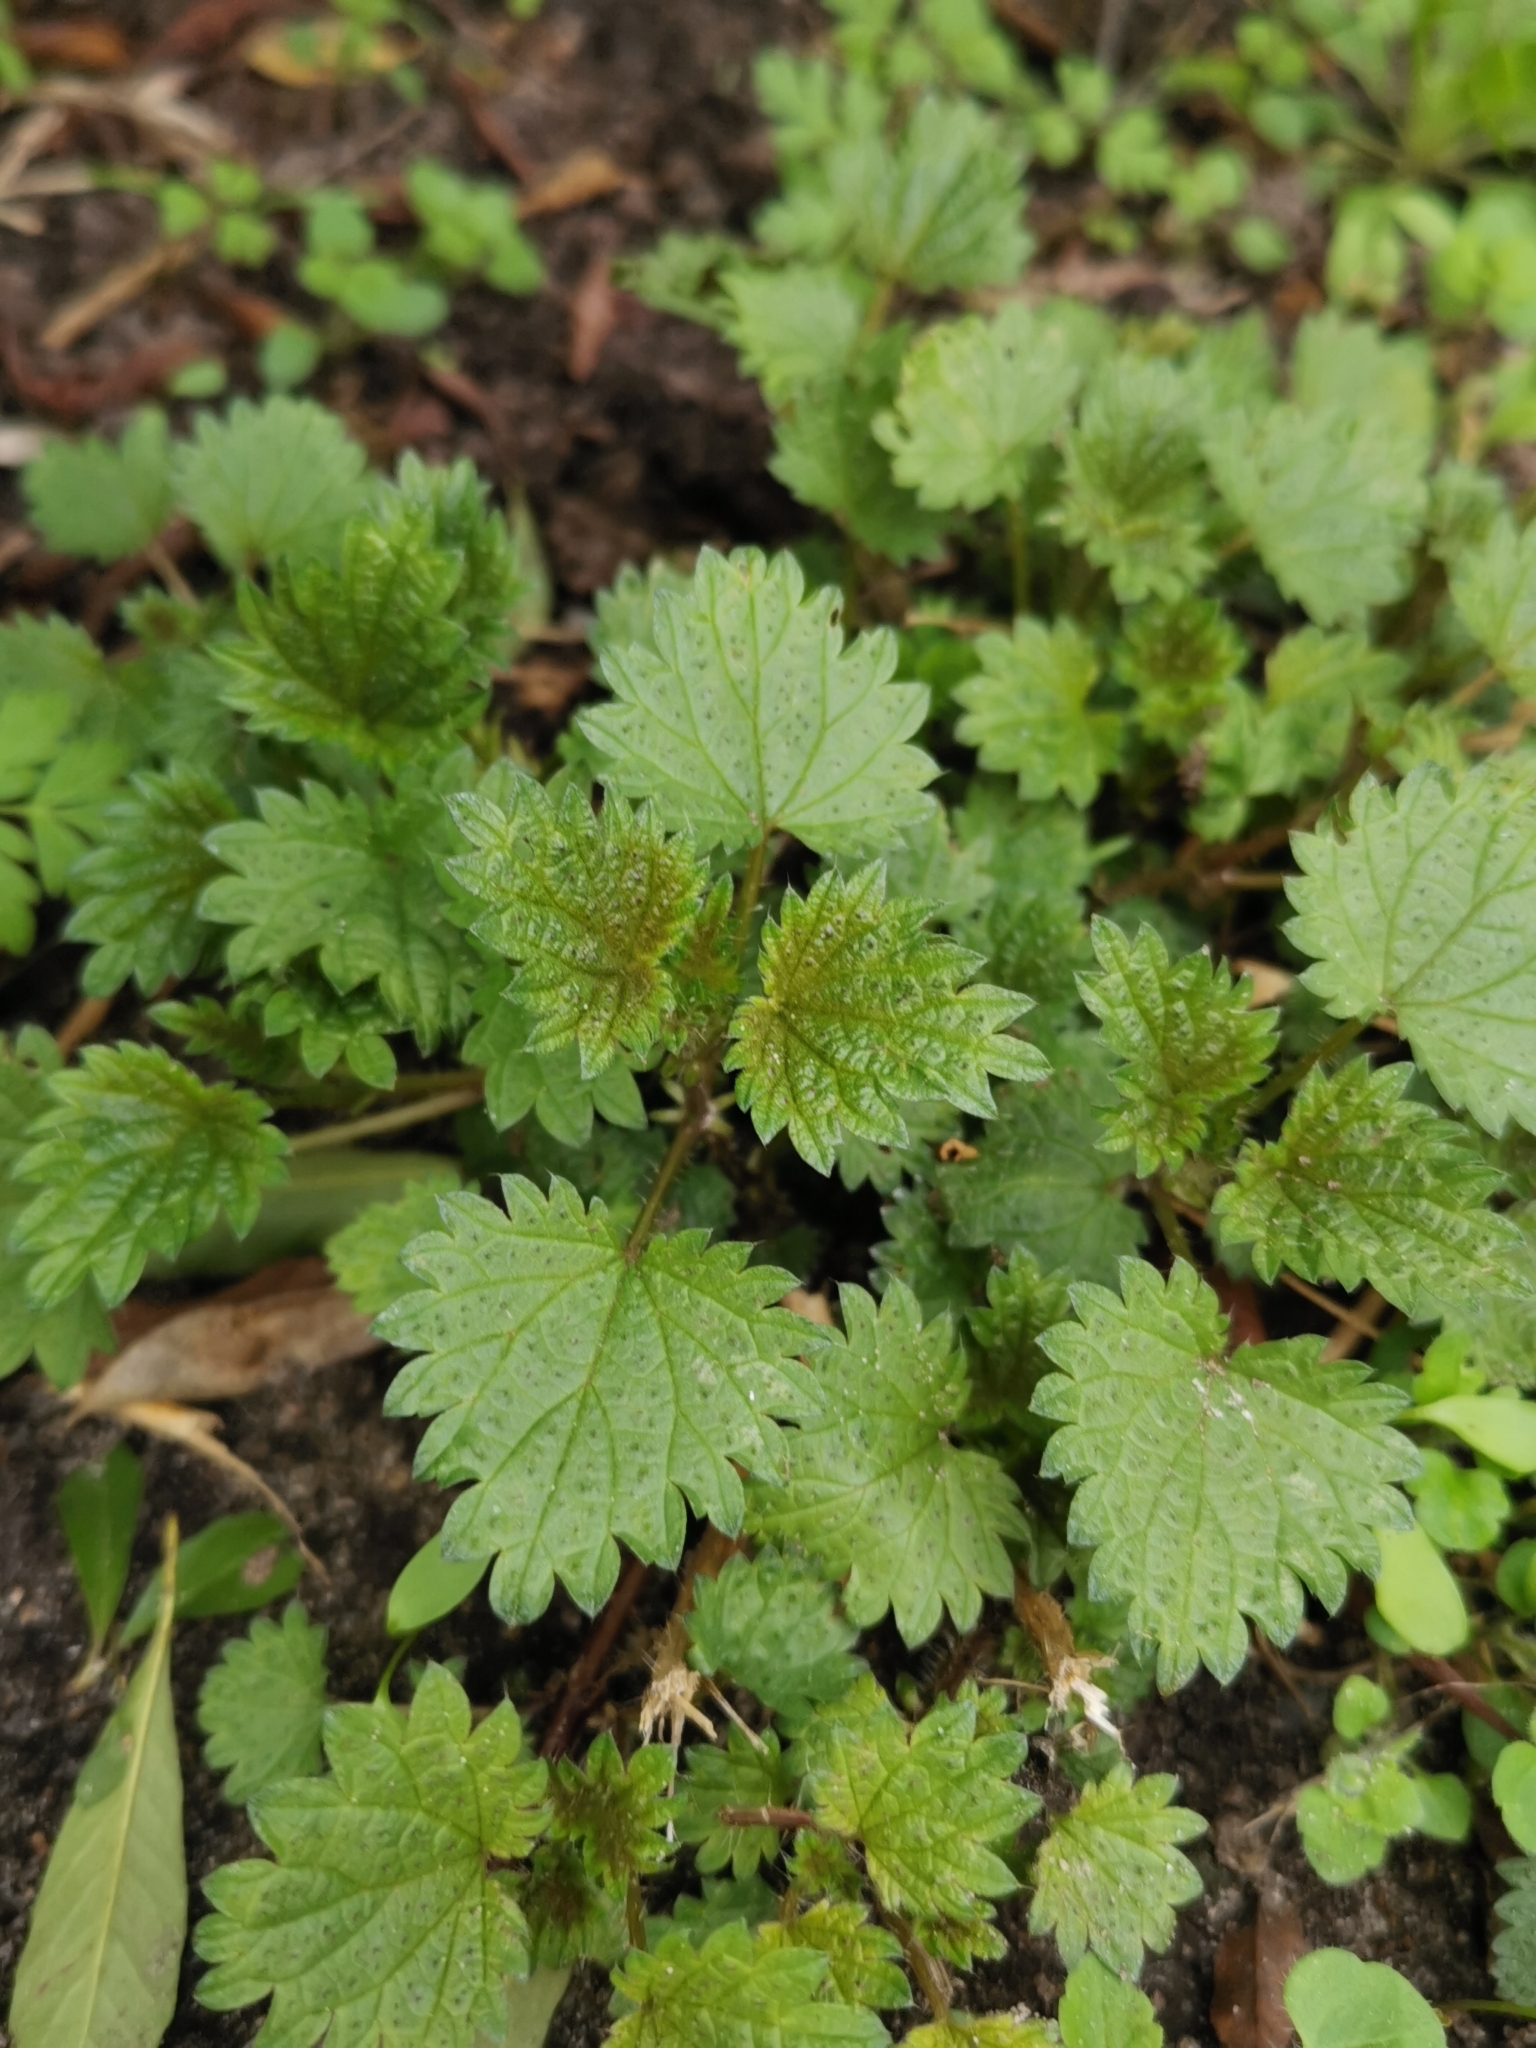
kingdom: Plantae
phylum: Tracheophyta
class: Magnoliopsida
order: Rosales
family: Urticaceae
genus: Urtica
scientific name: Urtica dioica
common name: Common nettle
